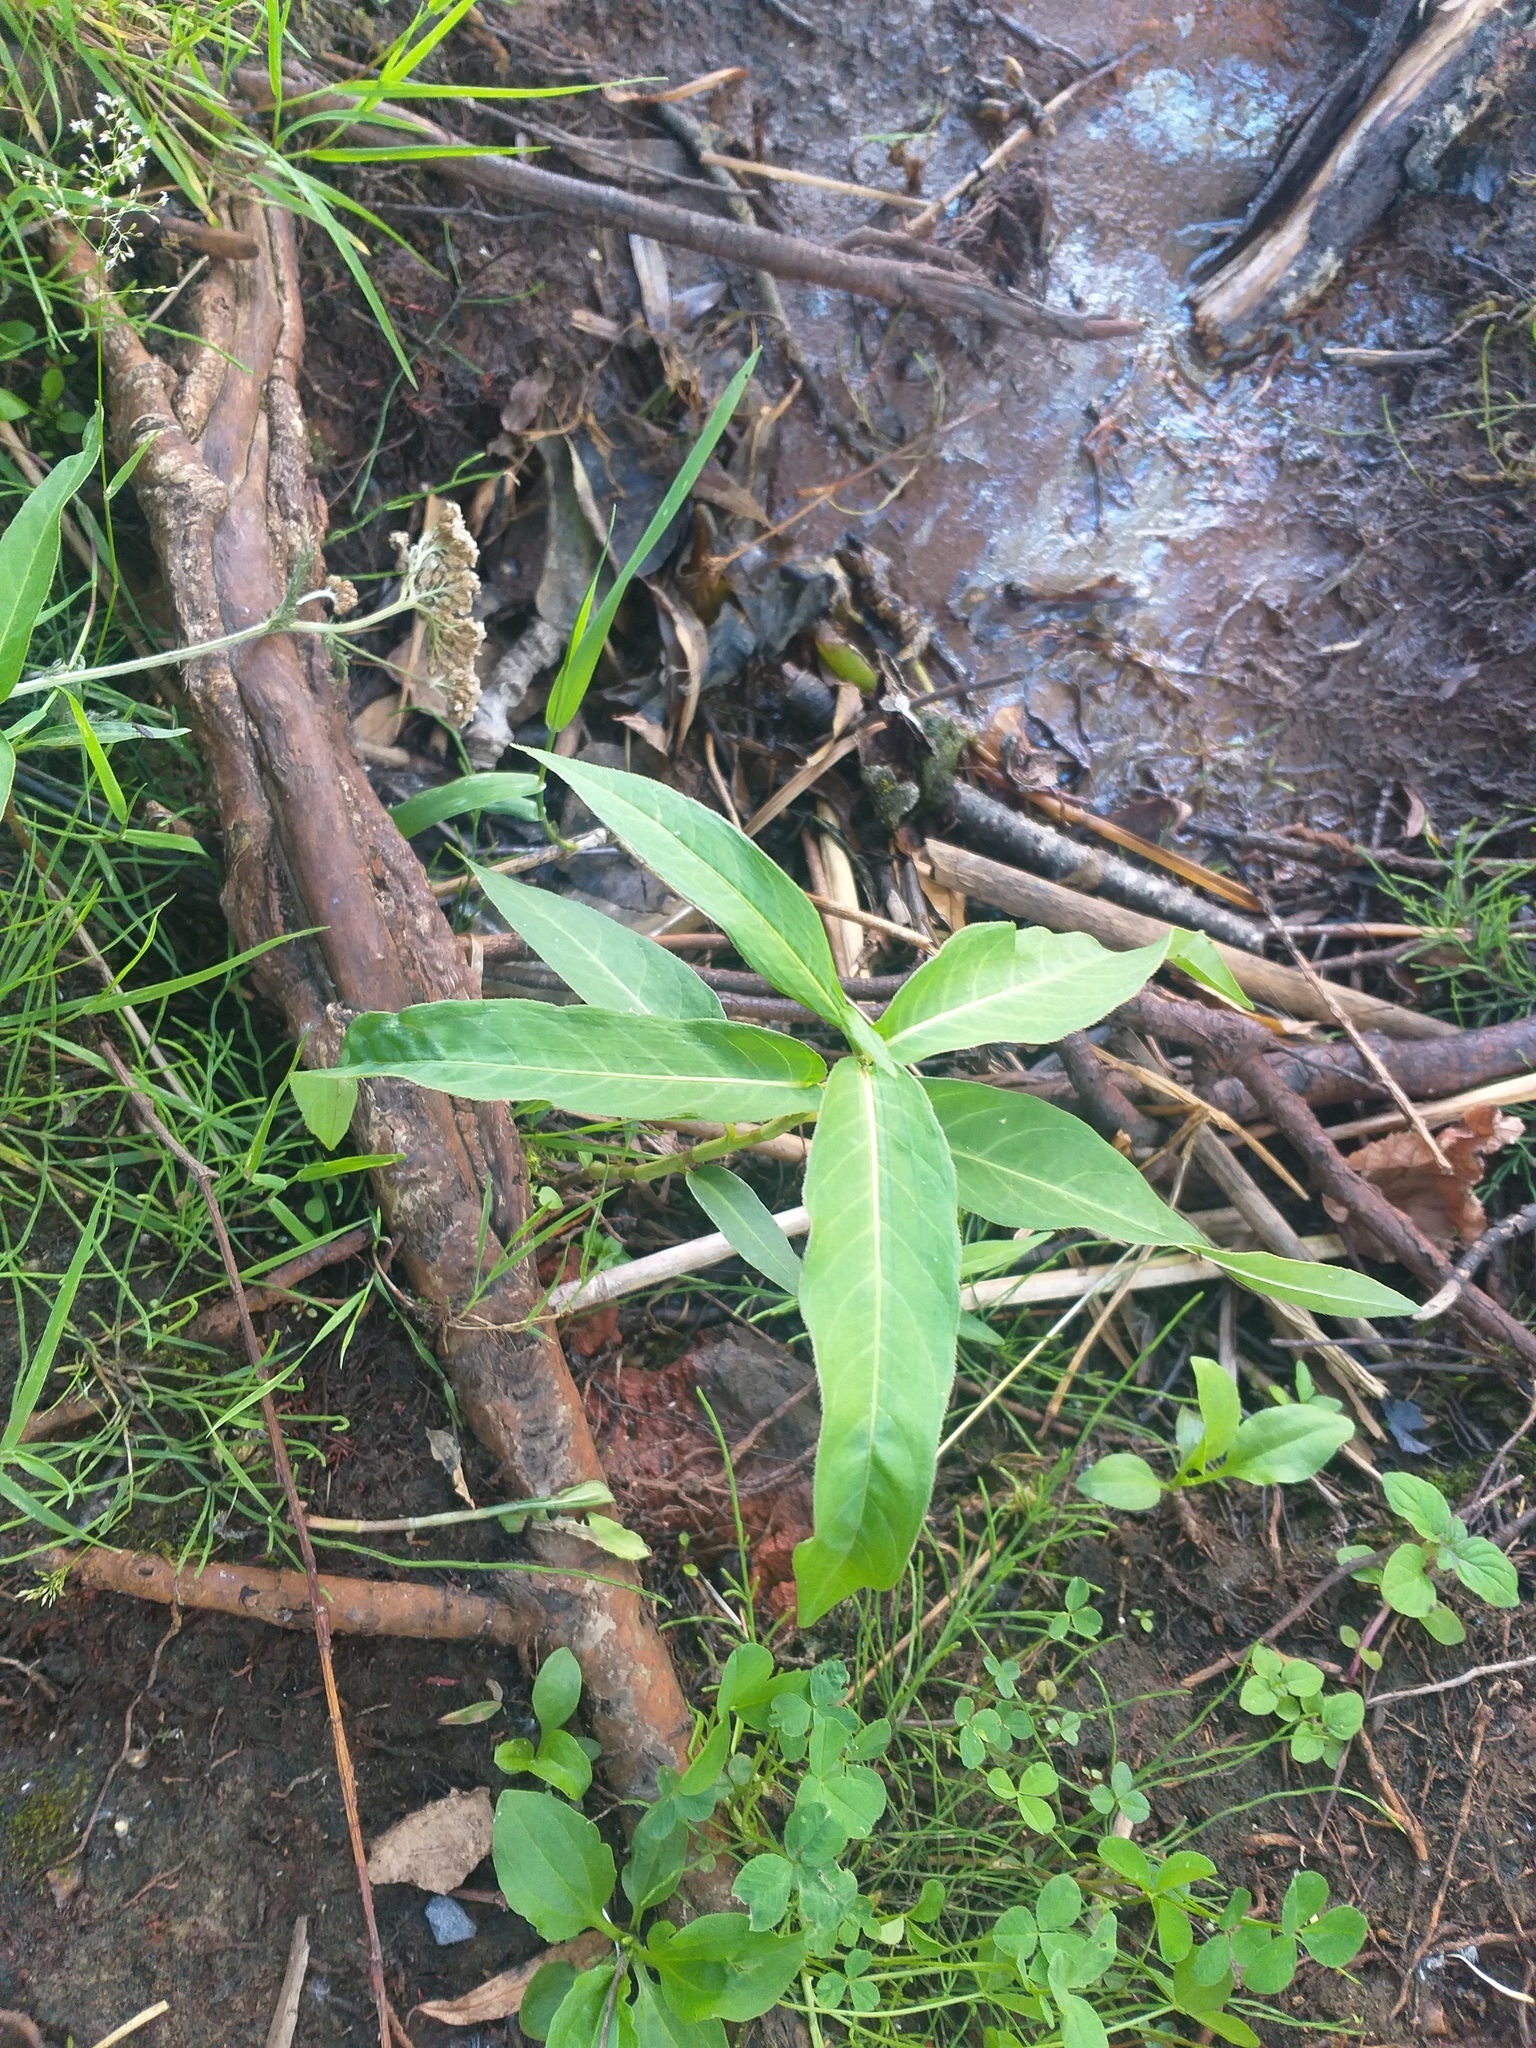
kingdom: Plantae
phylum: Tracheophyta
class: Magnoliopsida
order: Caryophyllales
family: Polygonaceae
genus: Persicaria
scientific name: Persicaria amphibia
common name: Amphibious bistort
